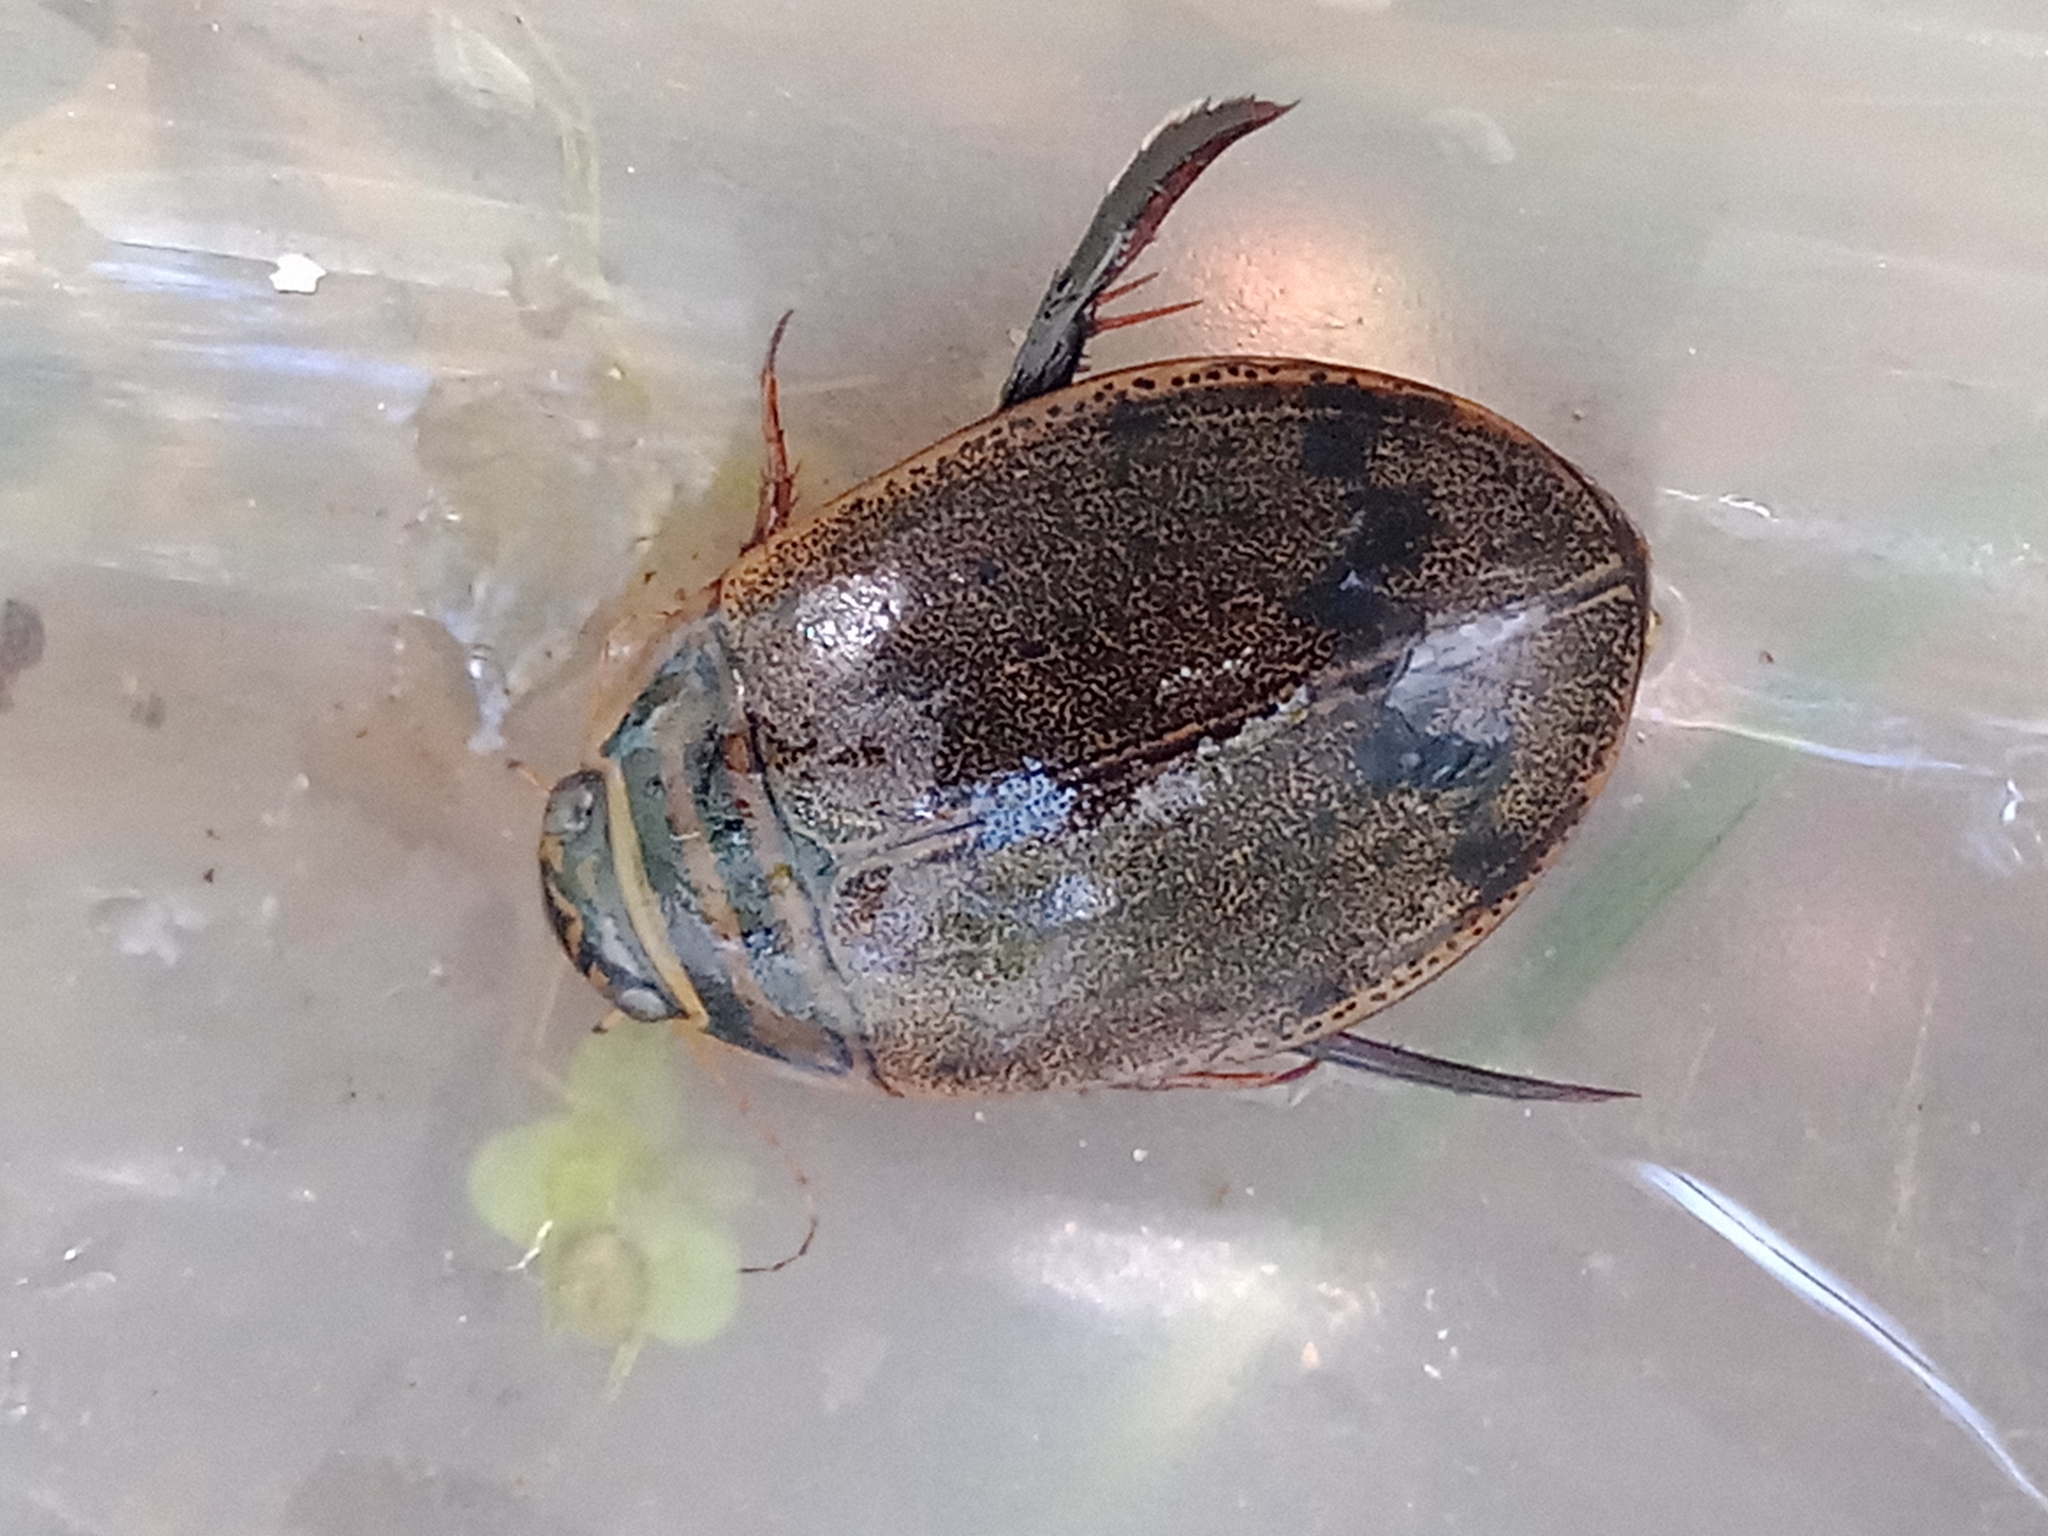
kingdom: Animalia
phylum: Arthropoda
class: Insecta
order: Coleoptera
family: Dytiscidae
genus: Acilius
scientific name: Acilius sulcatus
